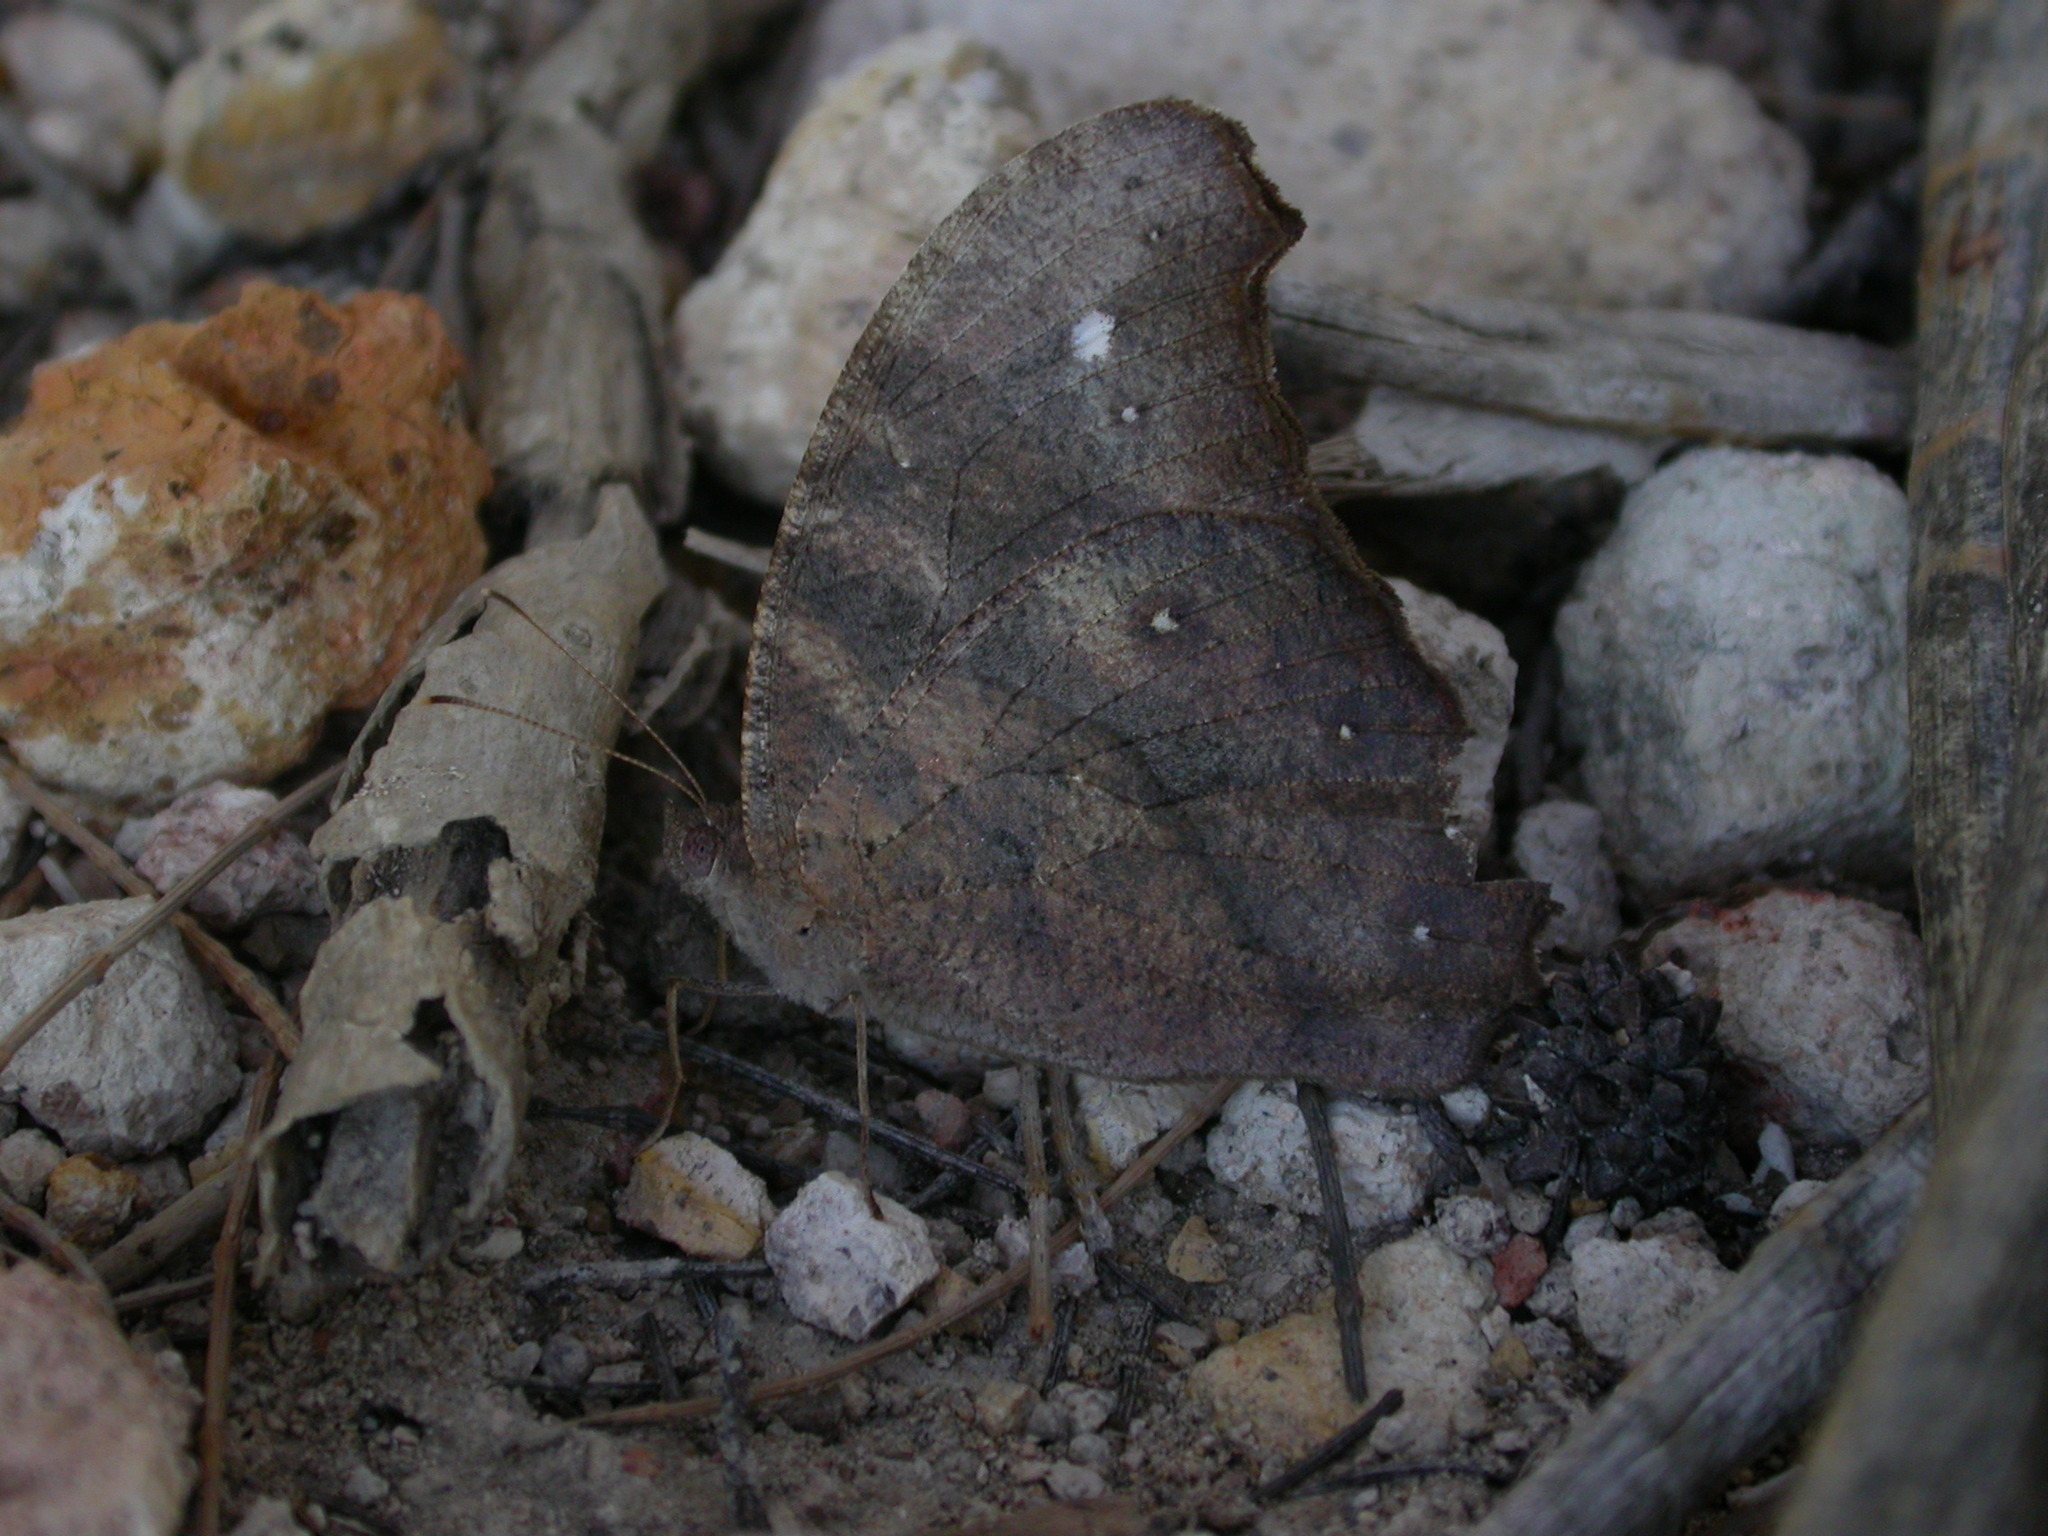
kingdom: Animalia
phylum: Arthropoda
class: Insecta
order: Lepidoptera
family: Nymphalidae
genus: Melanitis
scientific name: Melanitis leda
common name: Twilight brown
